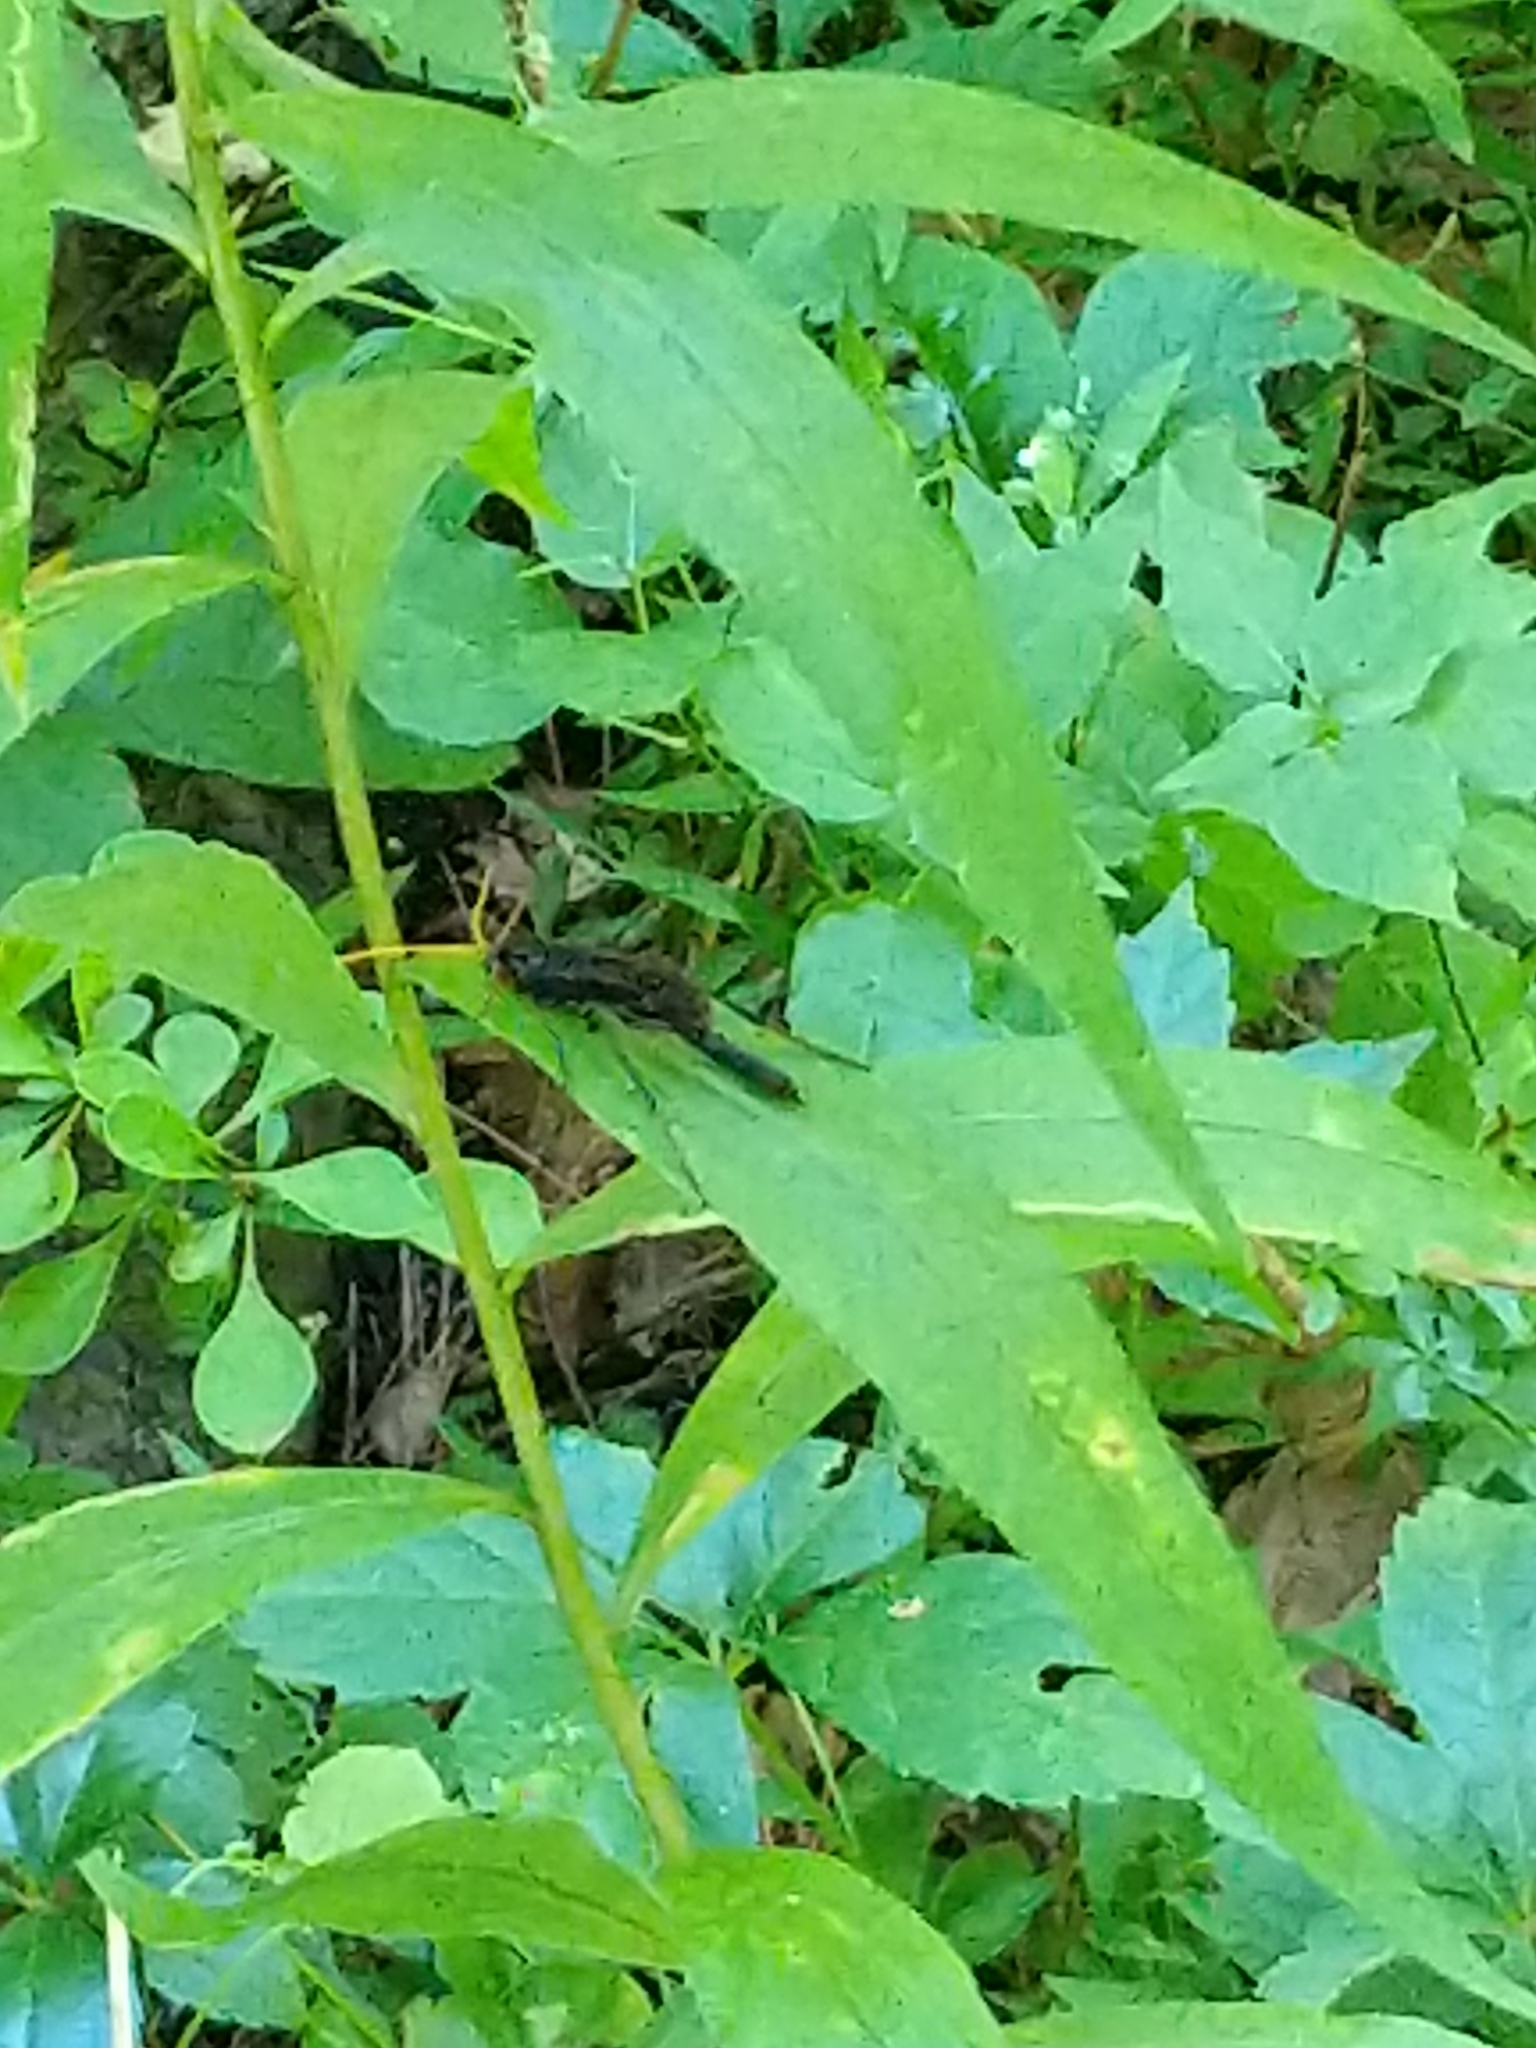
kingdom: Animalia
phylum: Arthropoda
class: Insecta
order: Hymenoptera
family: Ichneumonidae
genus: Heteropelma
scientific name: Heteropelma datanae
